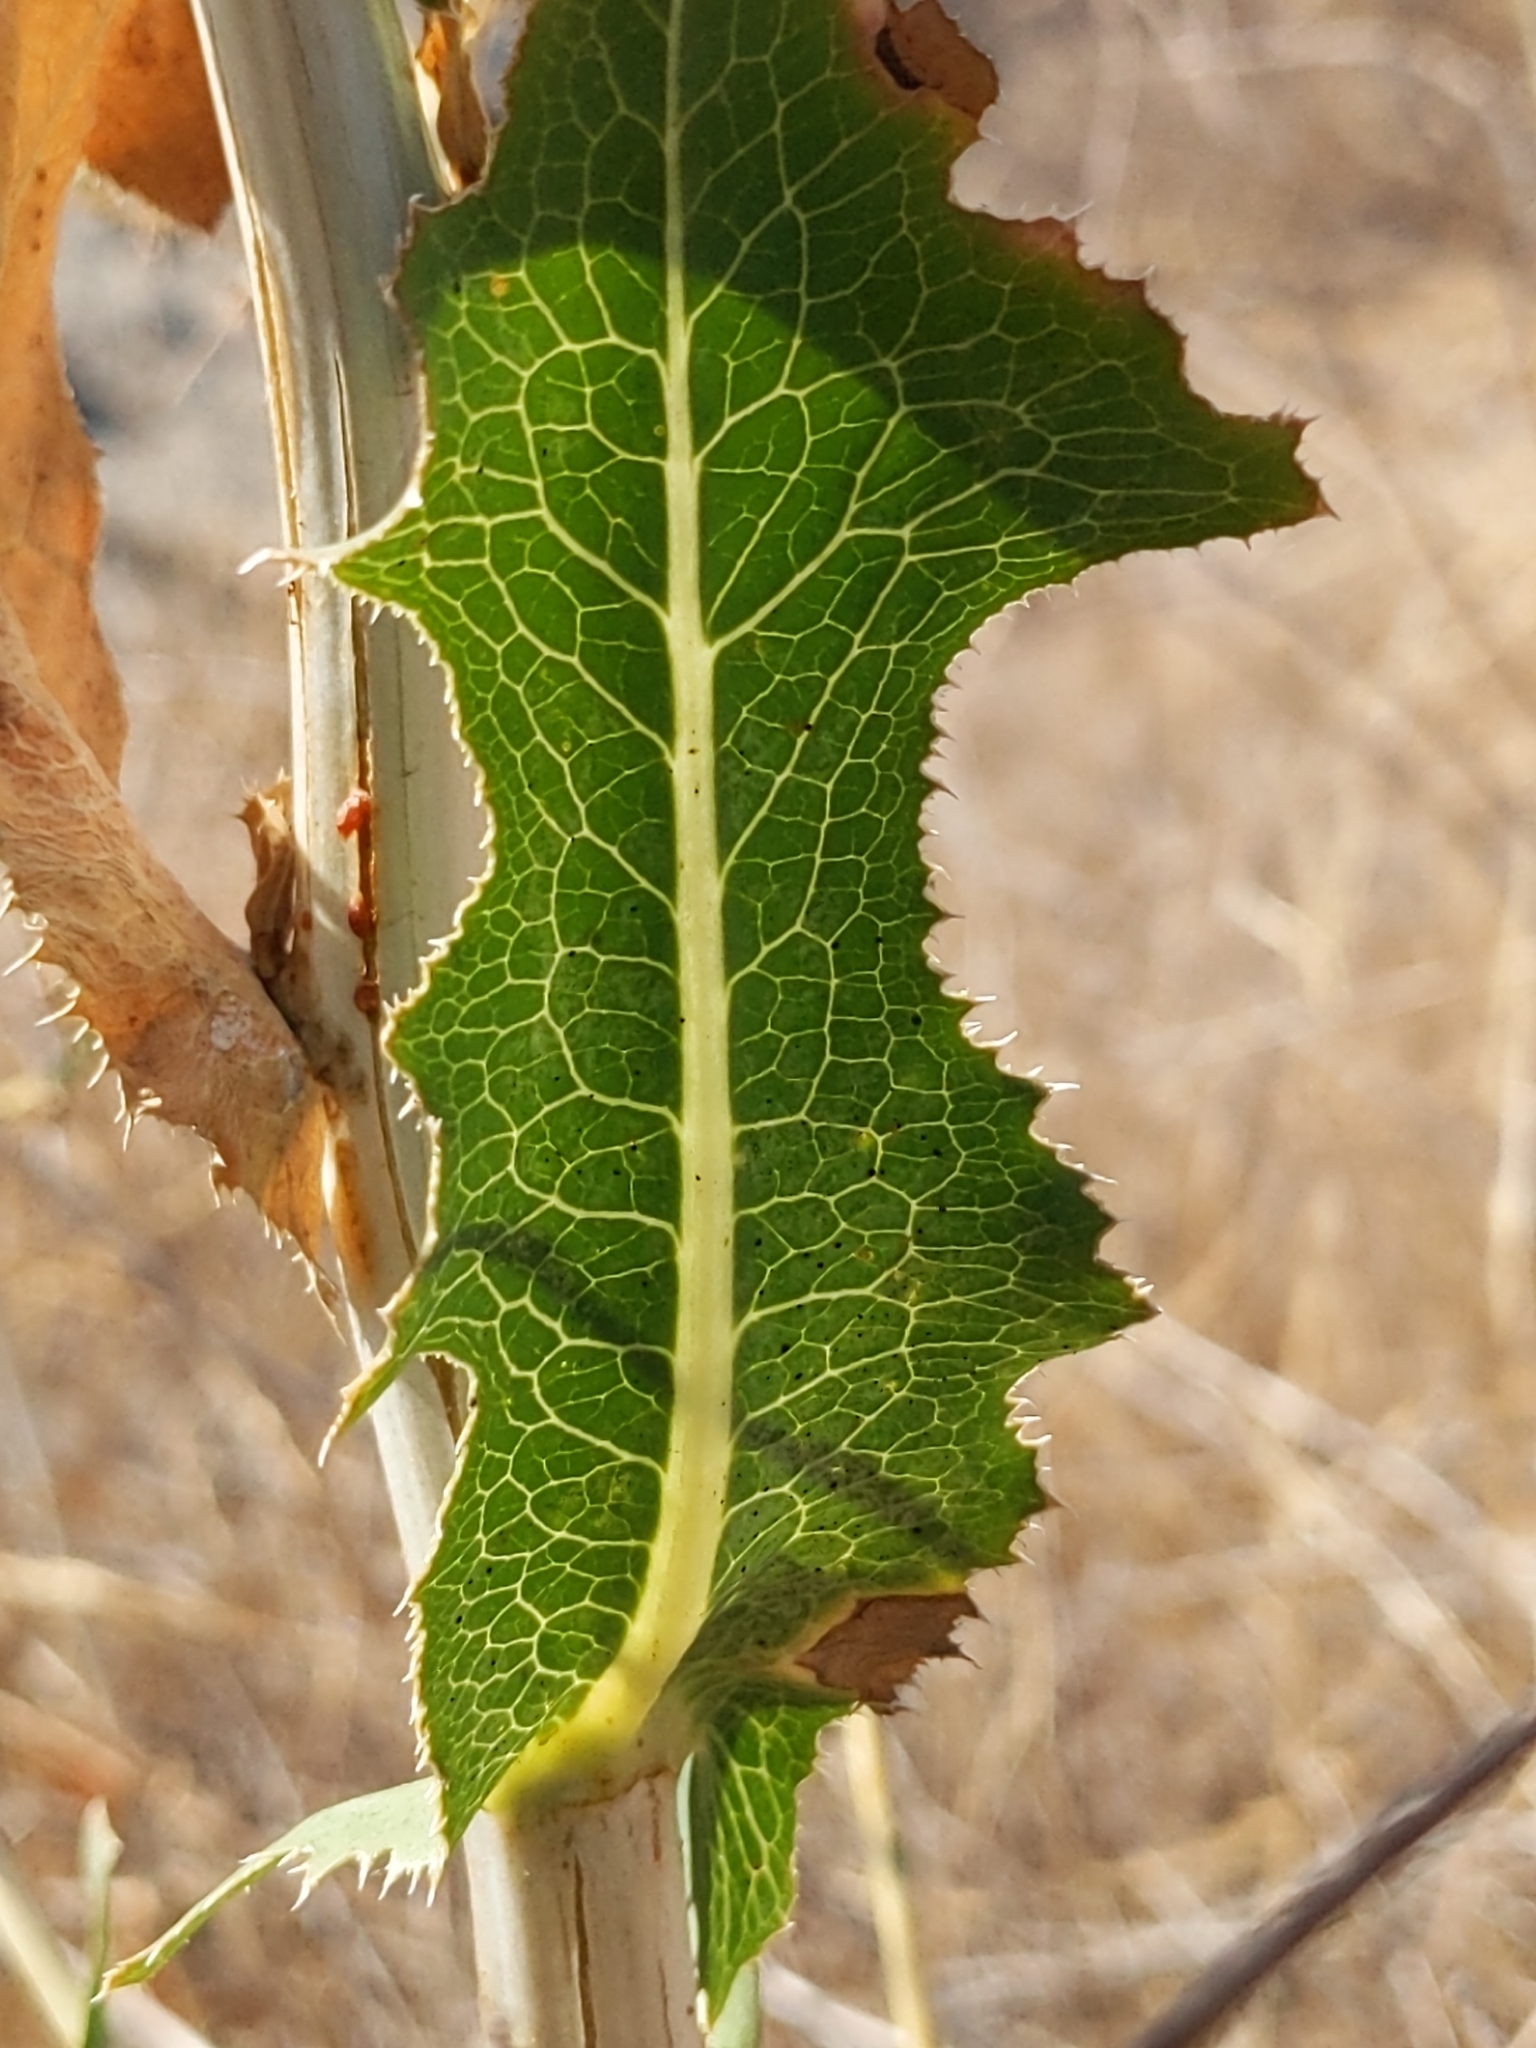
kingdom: Plantae
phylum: Tracheophyta
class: Magnoliopsida
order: Asterales
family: Asteraceae
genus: Lactuca
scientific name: Lactuca serriola
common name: Prickly lettuce
